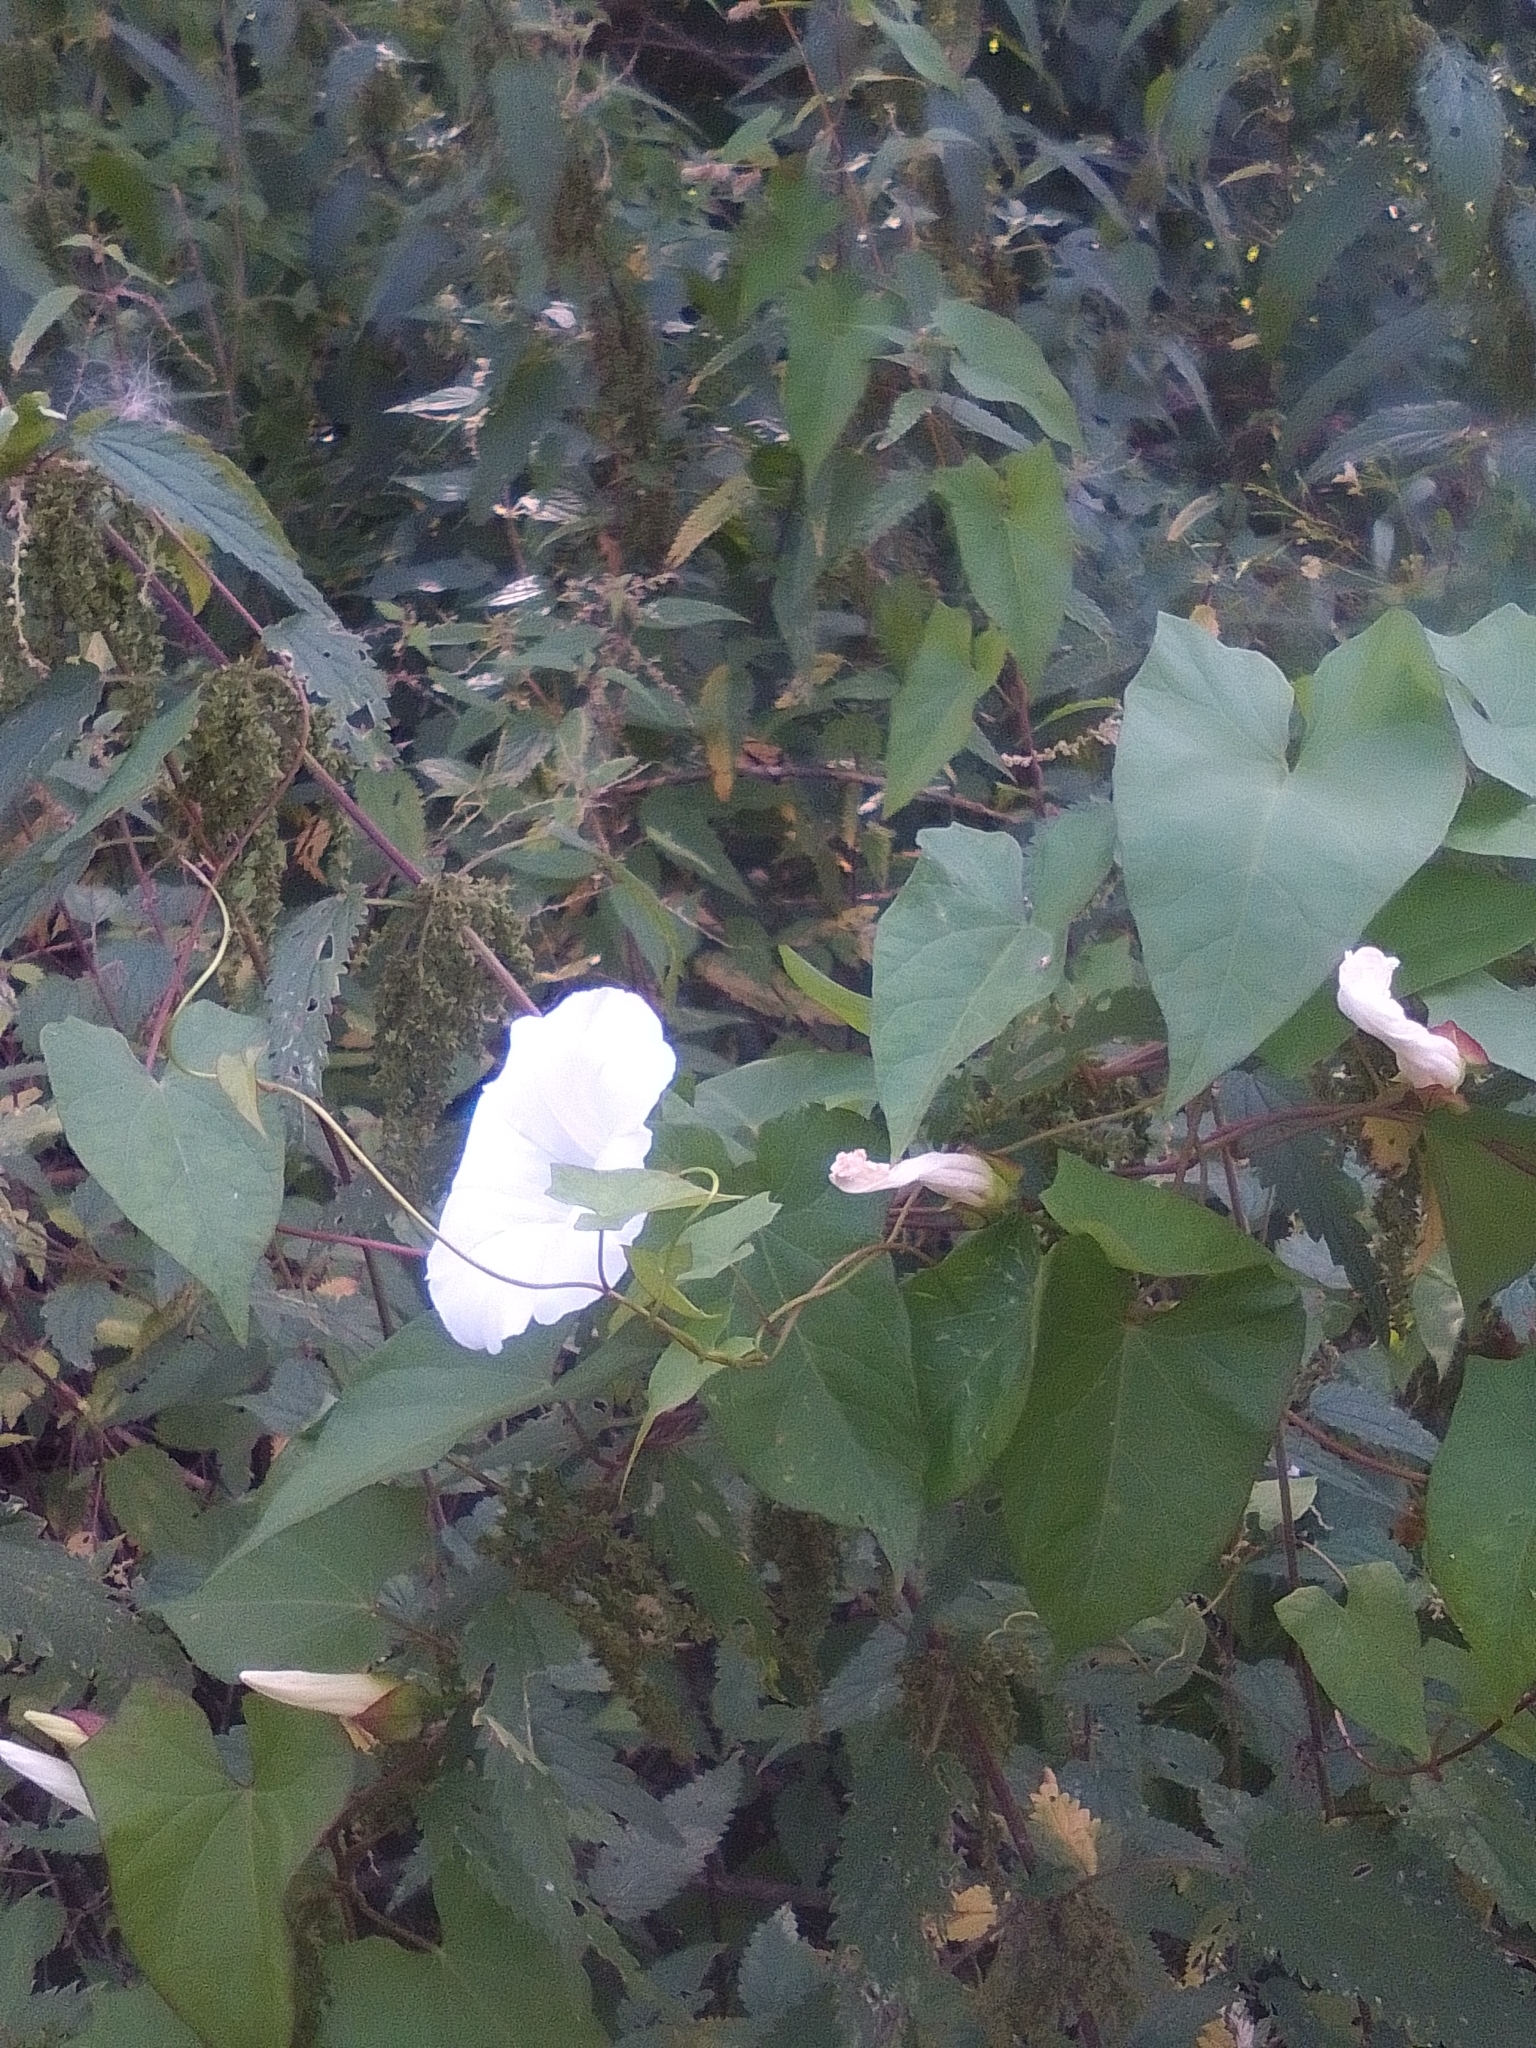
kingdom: Plantae
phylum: Tracheophyta
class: Magnoliopsida
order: Solanales
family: Convolvulaceae
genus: Calystegia
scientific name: Calystegia sepium
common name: Hedge bindweed
